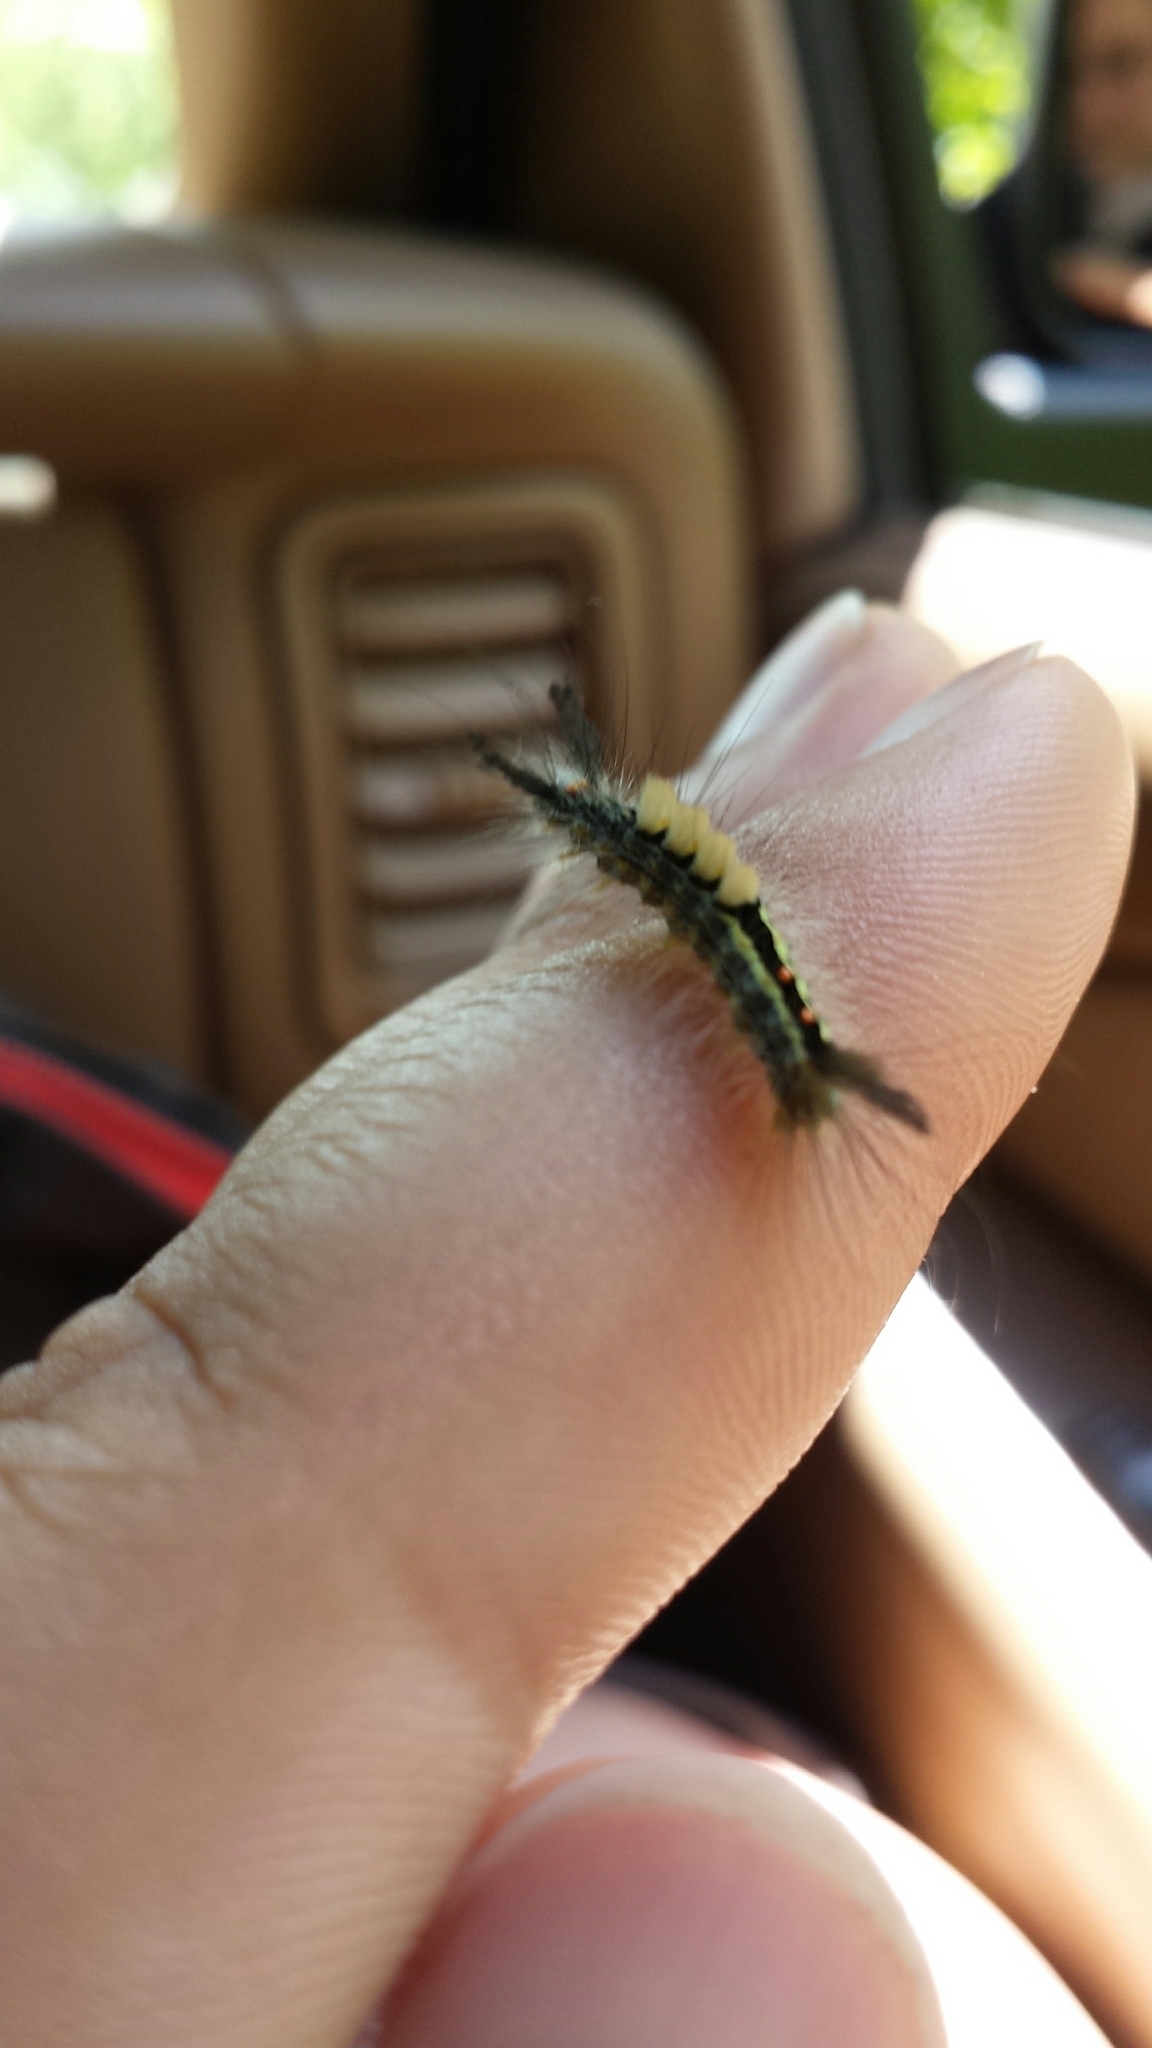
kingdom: Animalia
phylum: Arthropoda
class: Insecta
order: Lepidoptera
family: Erebidae
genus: Orgyia
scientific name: Orgyia leucostigma
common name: White-marked tussock moth
